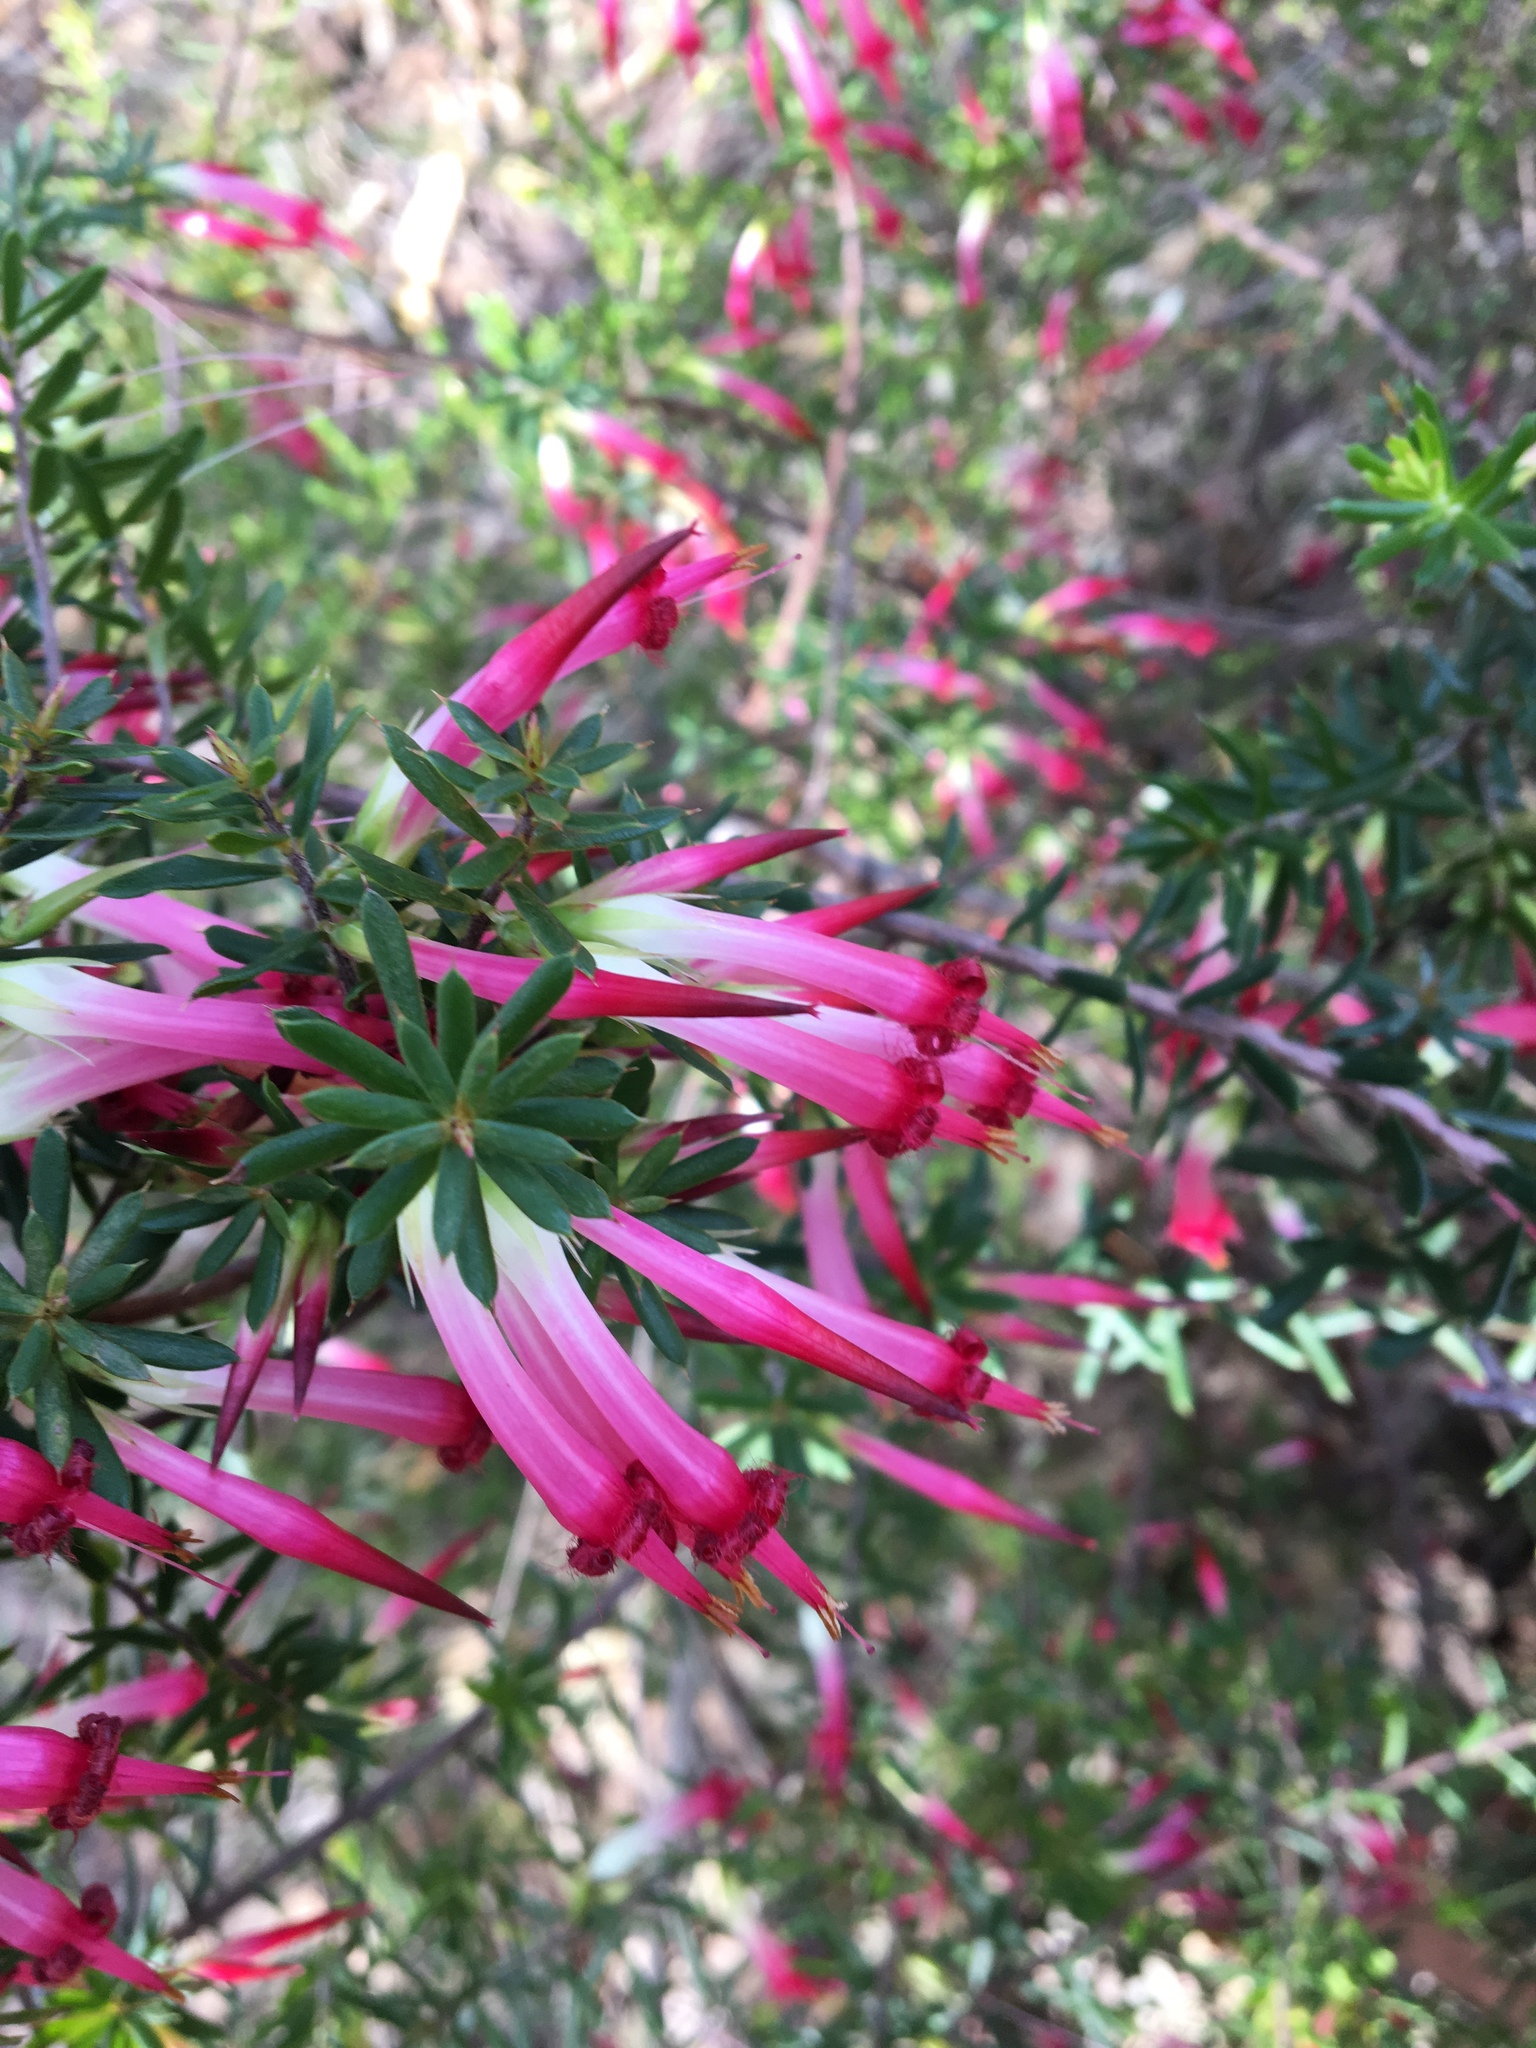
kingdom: Plantae
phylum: Tracheophyta
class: Magnoliopsida
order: Ericales
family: Ericaceae
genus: Styphelia
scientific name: Styphelia tubiflora
